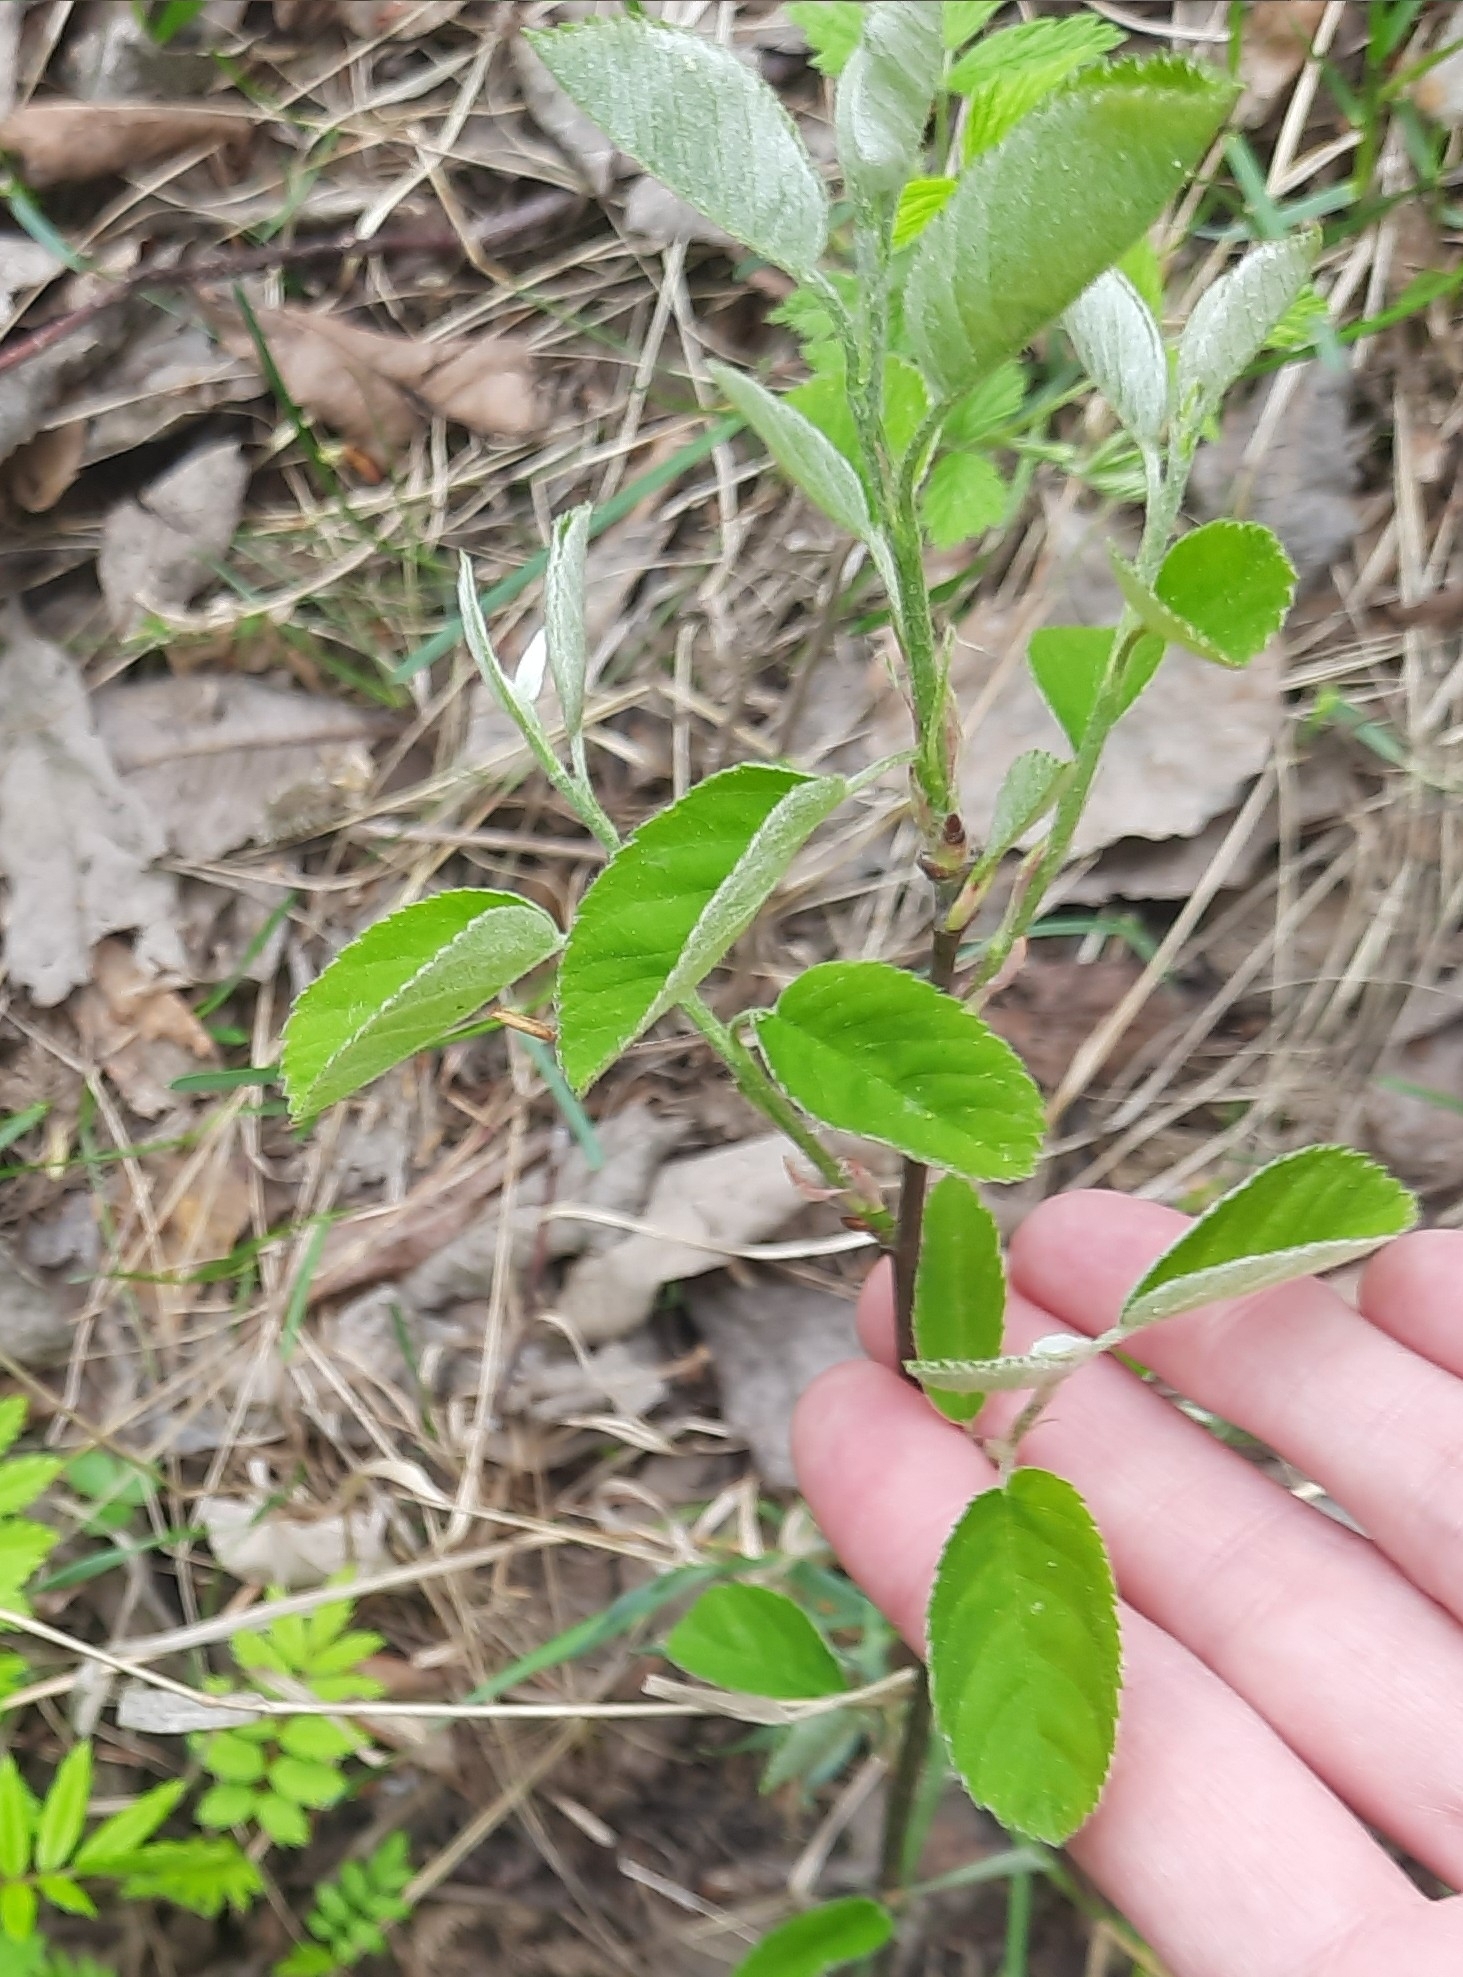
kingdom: Plantae
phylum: Tracheophyta
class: Magnoliopsida
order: Rosales
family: Rosaceae
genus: Amelanchier
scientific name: Amelanchier
